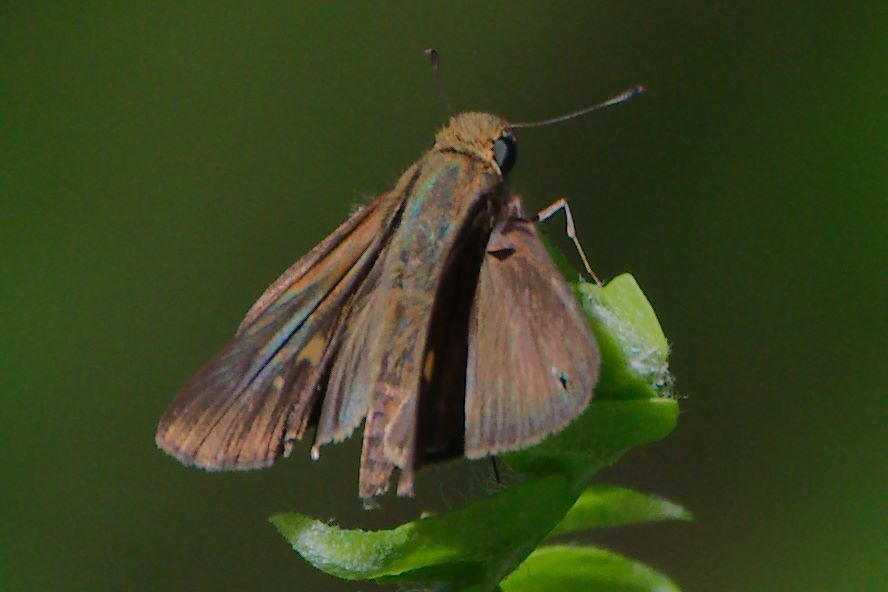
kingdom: Animalia
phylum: Arthropoda
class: Insecta
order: Lepidoptera
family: Hesperiidae
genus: Panoquina
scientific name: Panoquina ocola
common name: Ocola skipper
